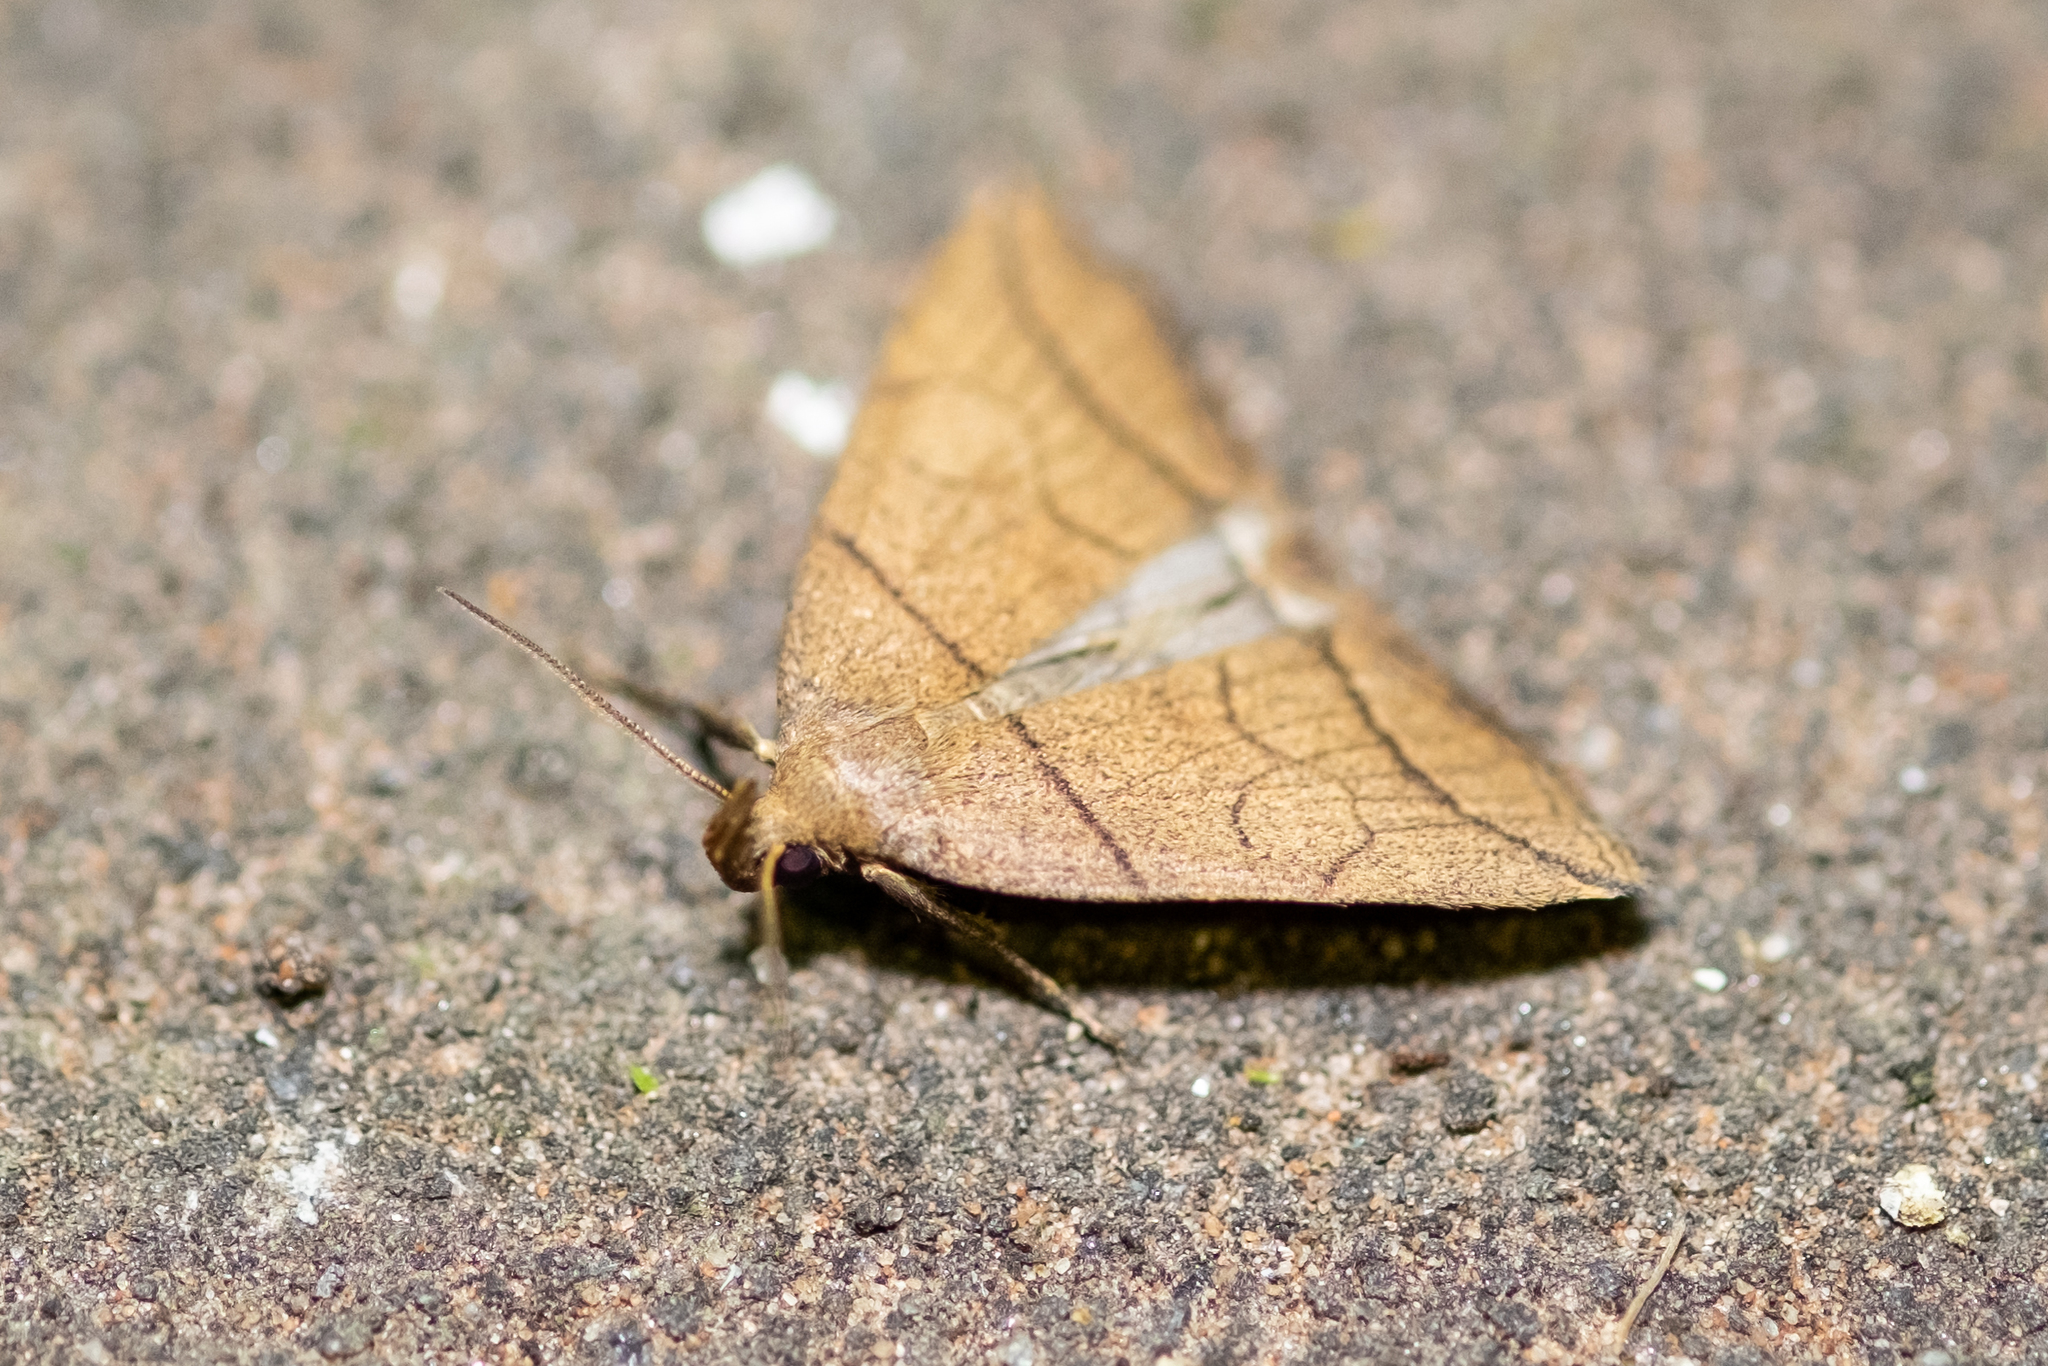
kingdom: Animalia
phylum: Arthropoda
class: Insecta
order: Lepidoptera
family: Erebidae
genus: Herminia
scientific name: Herminia grisealis
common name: Small fan-foot
